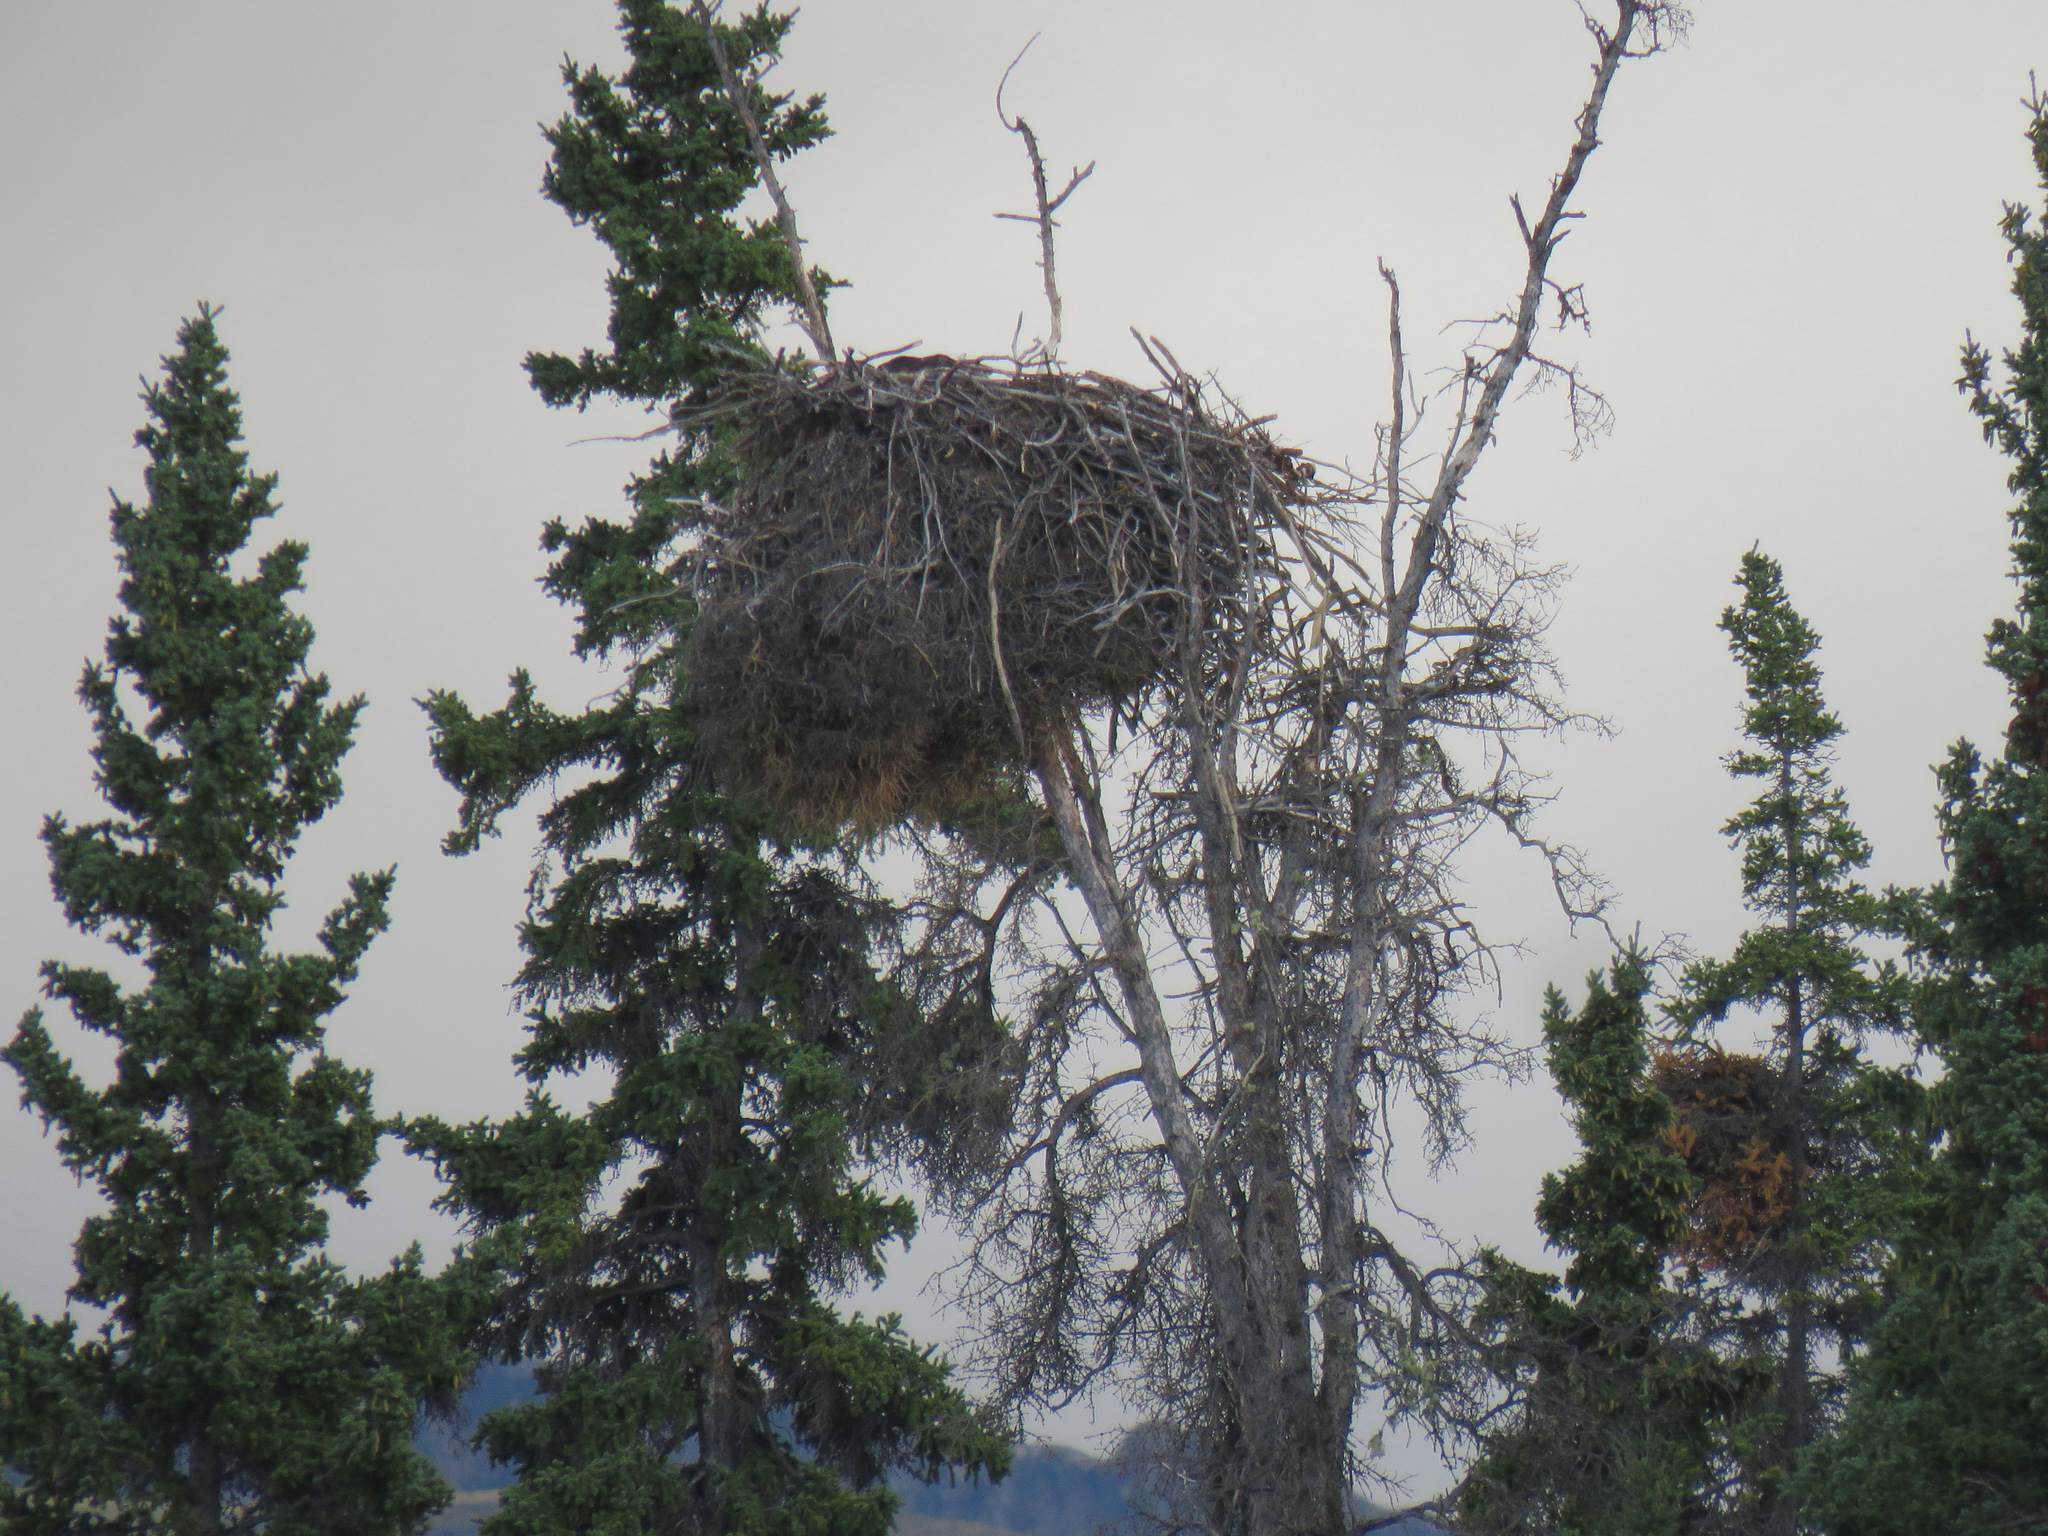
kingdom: Animalia
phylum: Chordata
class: Aves
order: Accipitriformes
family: Accipitridae
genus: Haliaeetus
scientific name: Haliaeetus leucocephalus
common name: Bald eagle
